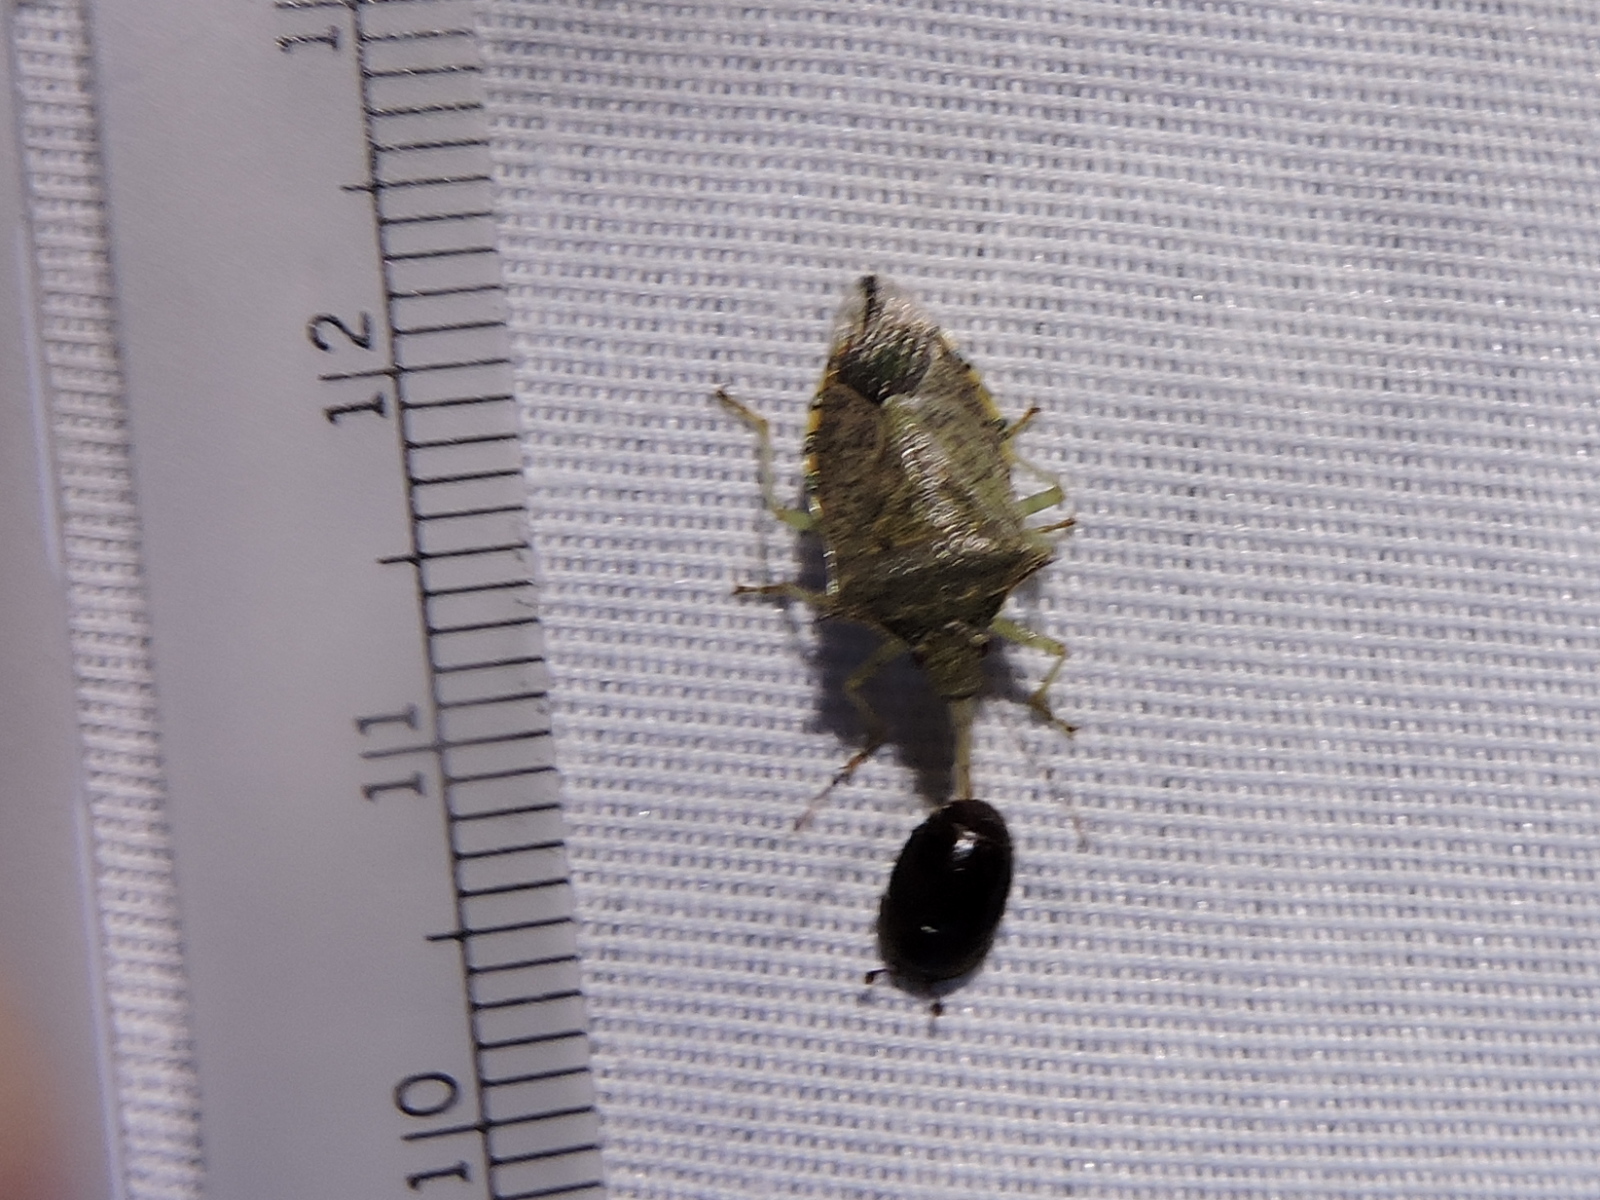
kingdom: Animalia
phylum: Arthropoda
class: Insecta
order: Hemiptera
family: Pentatomidae
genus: Podisus
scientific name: Podisus maculiventris
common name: Spined soldier bug
